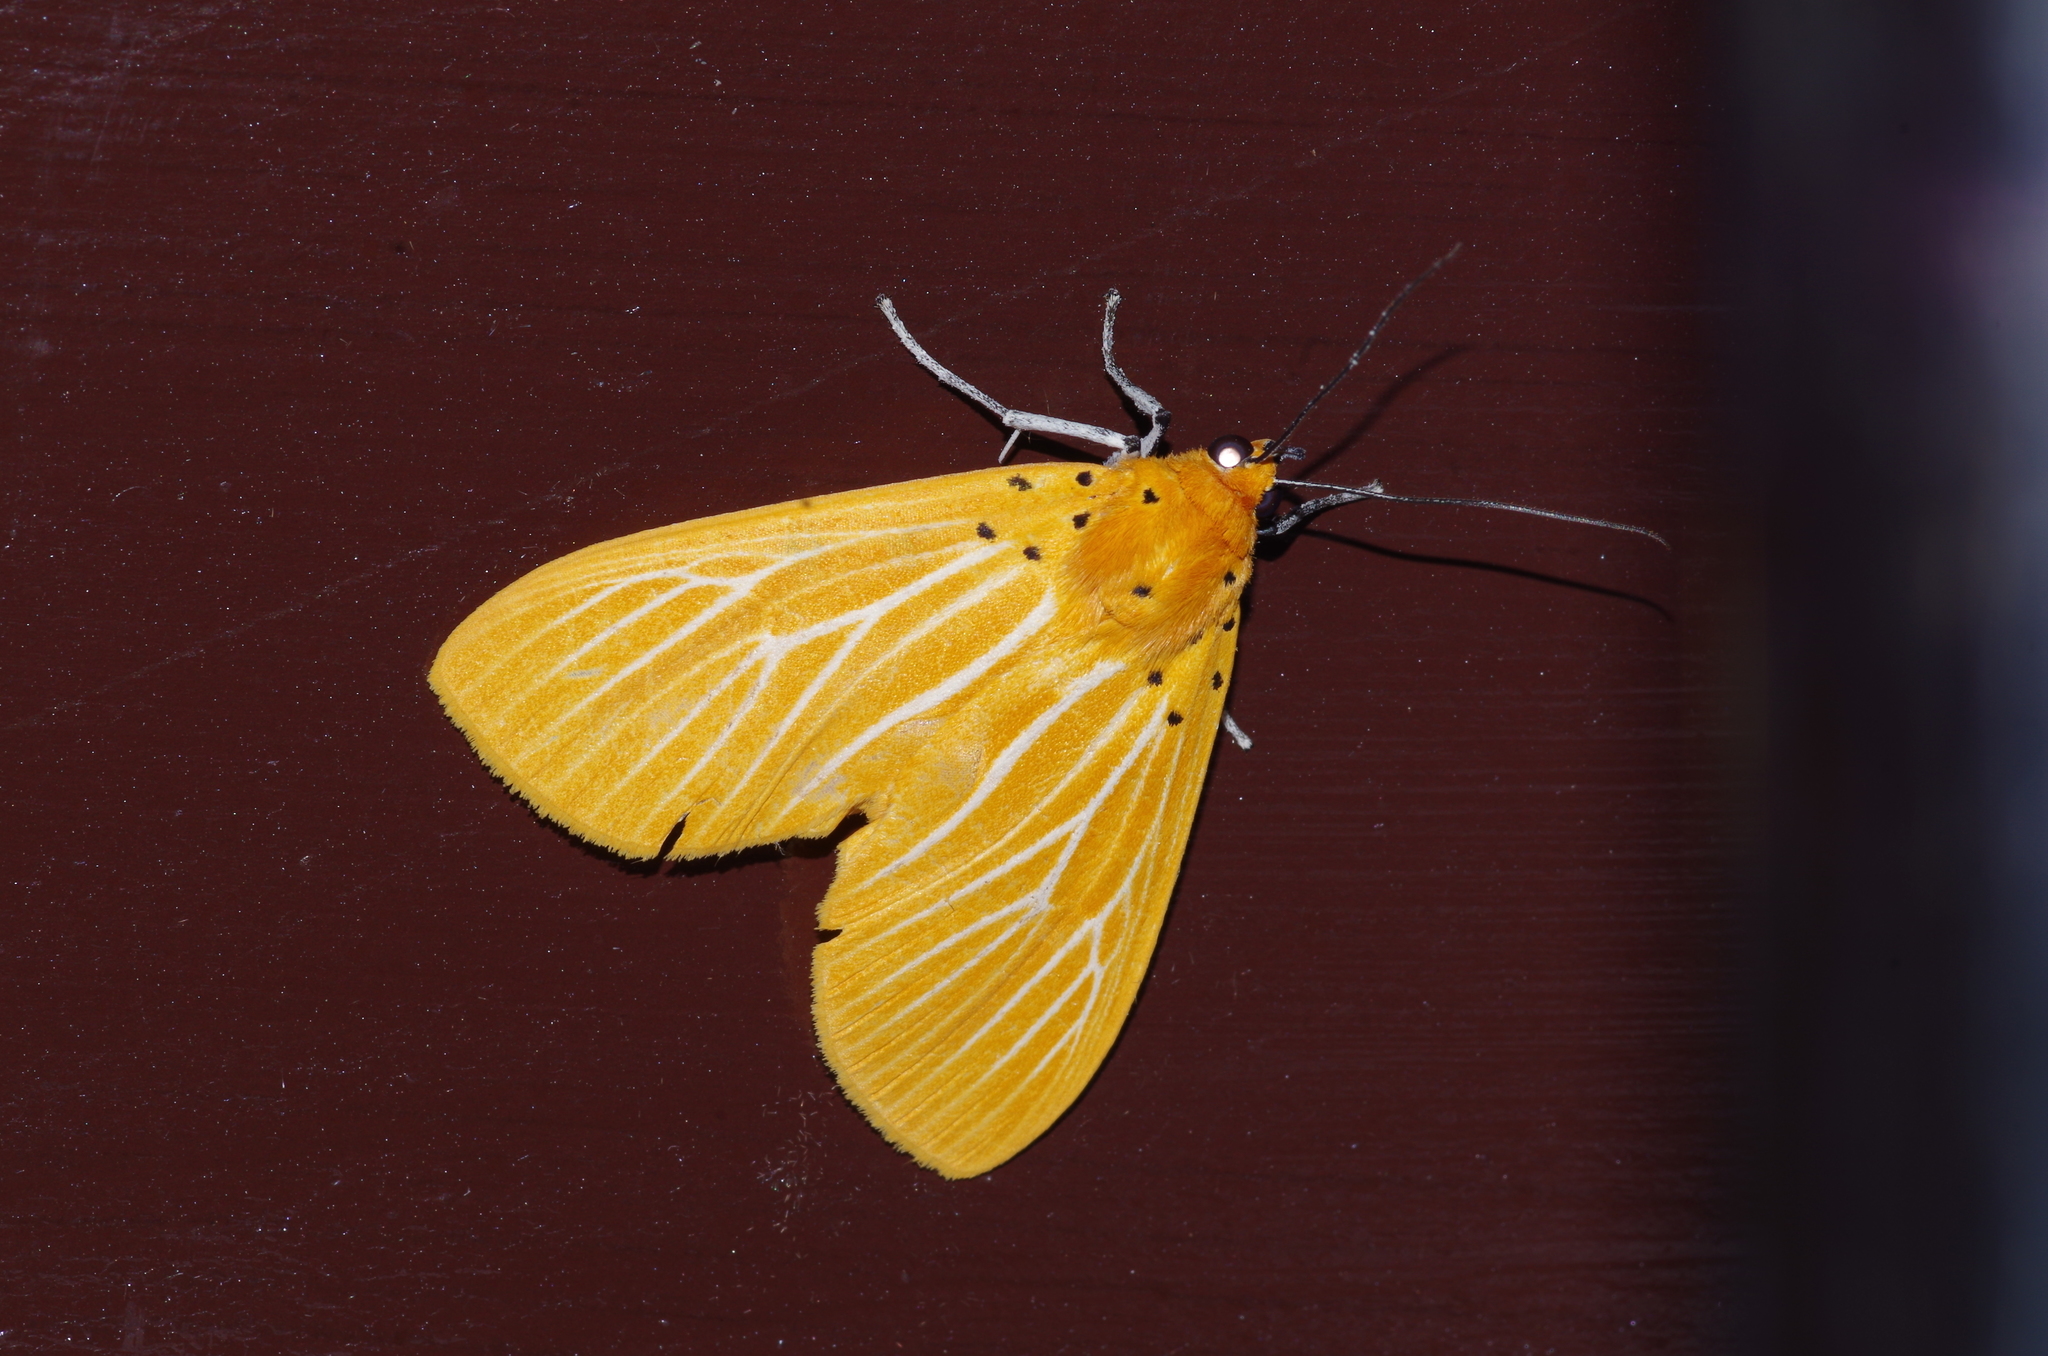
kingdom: Animalia
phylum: Arthropoda
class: Insecta
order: Lepidoptera
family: Erebidae
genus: Asota
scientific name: Asota egens
